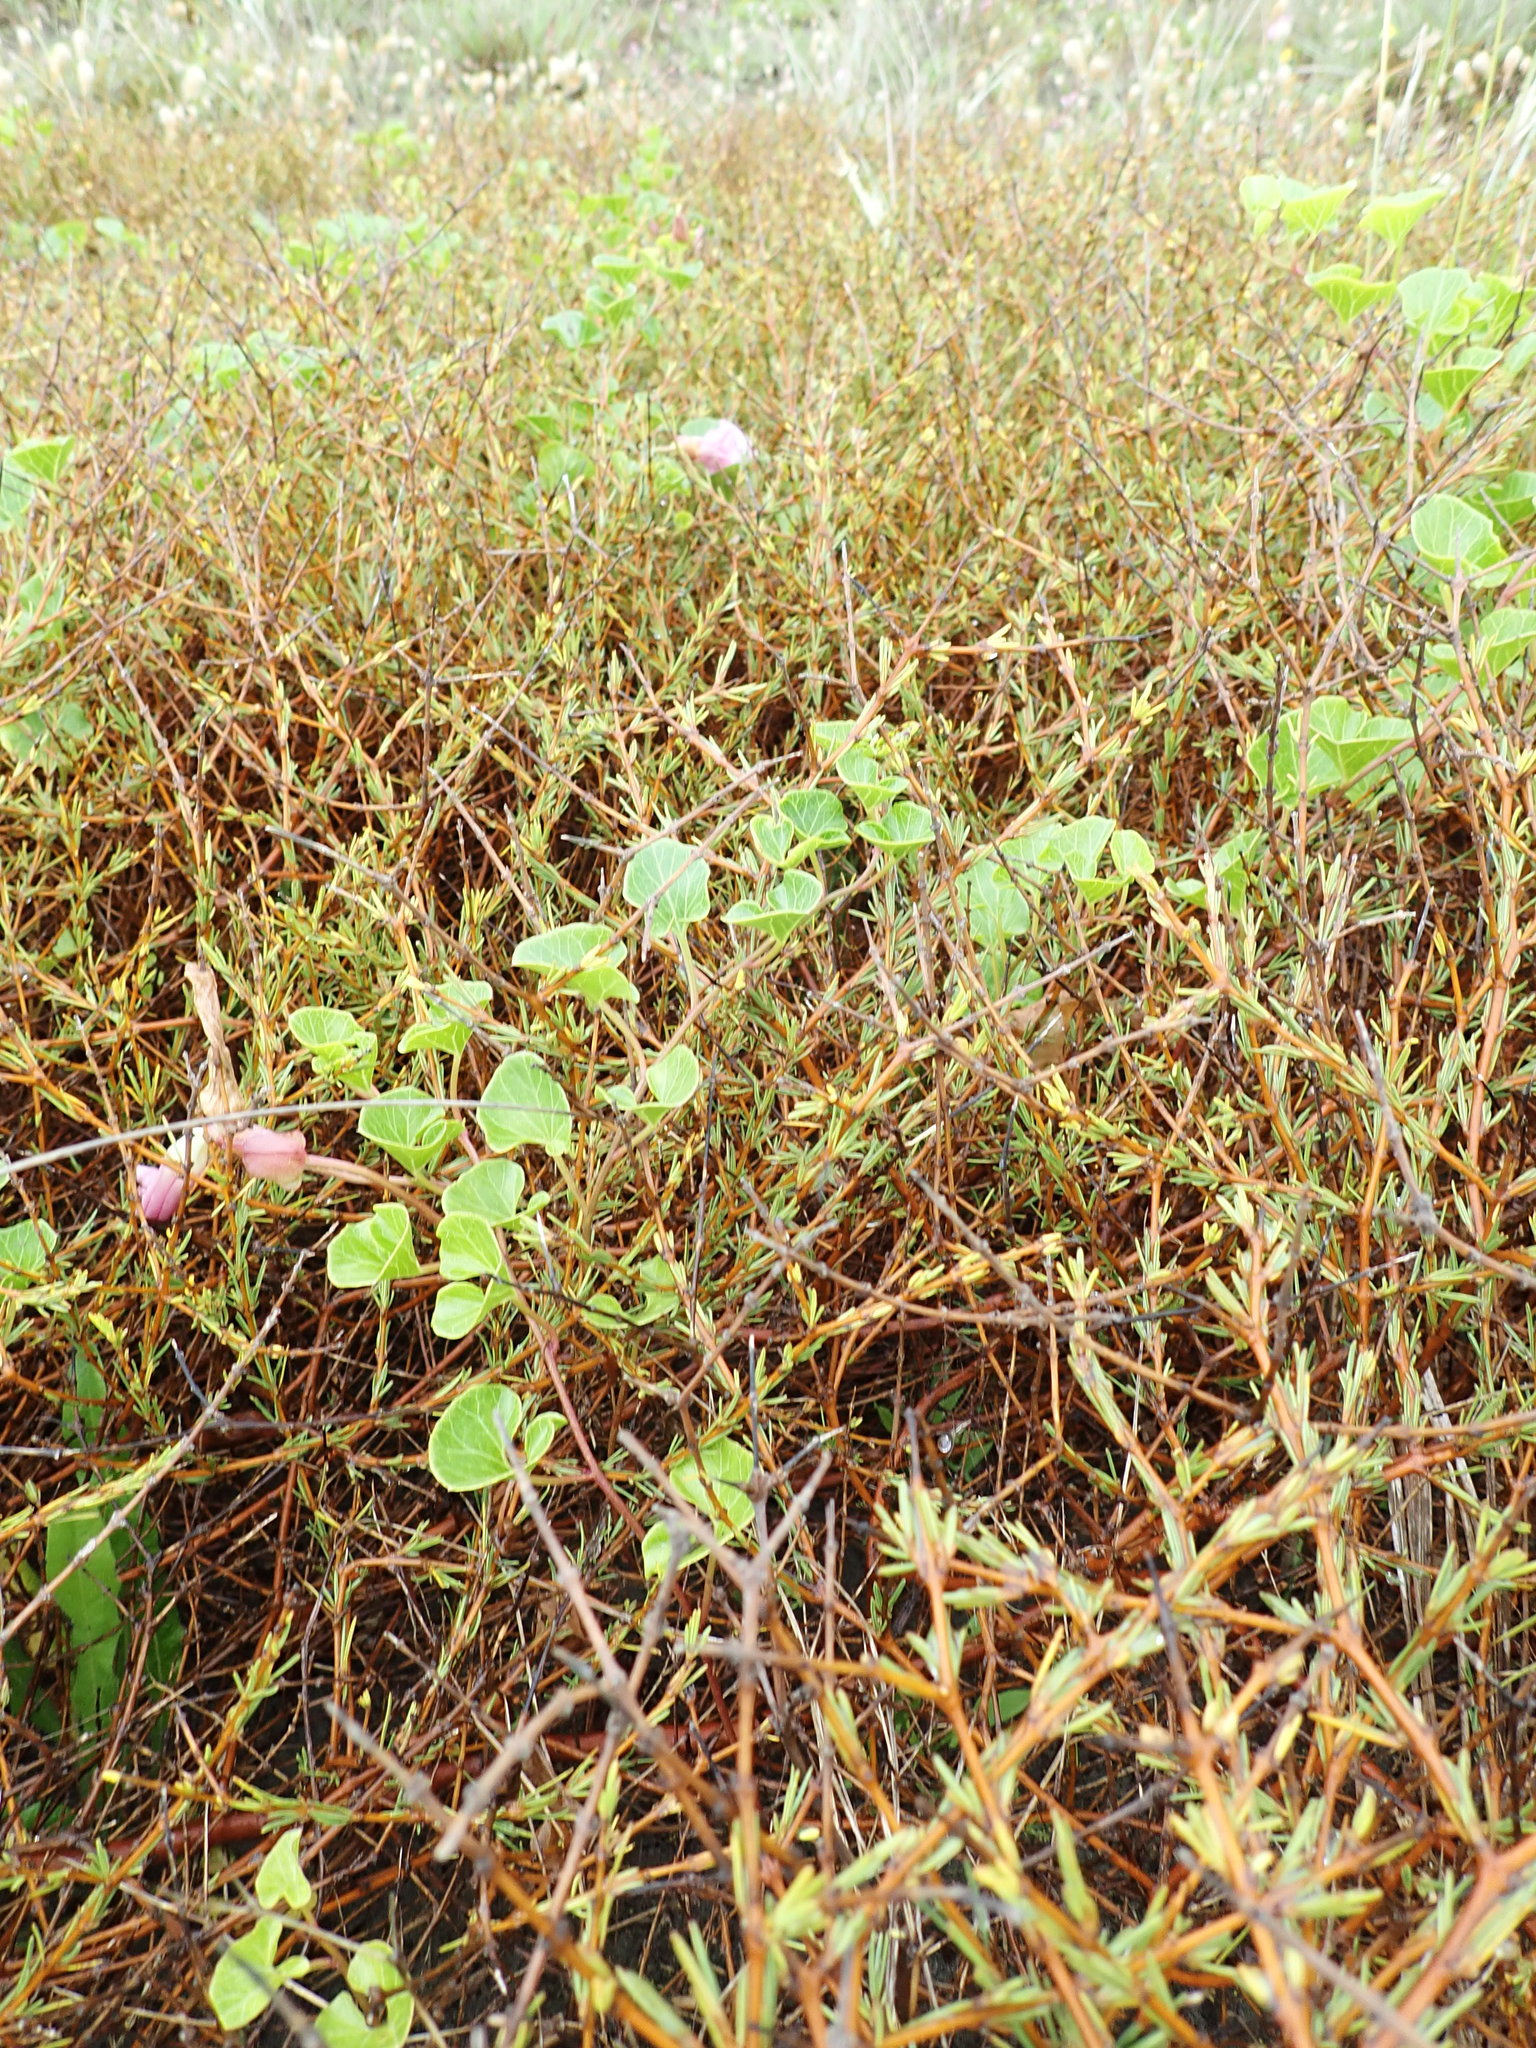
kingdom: Plantae
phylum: Tracheophyta
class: Magnoliopsida
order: Solanales
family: Convolvulaceae
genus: Calystegia
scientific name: Calystegia soldanella
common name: Sea bindweed
